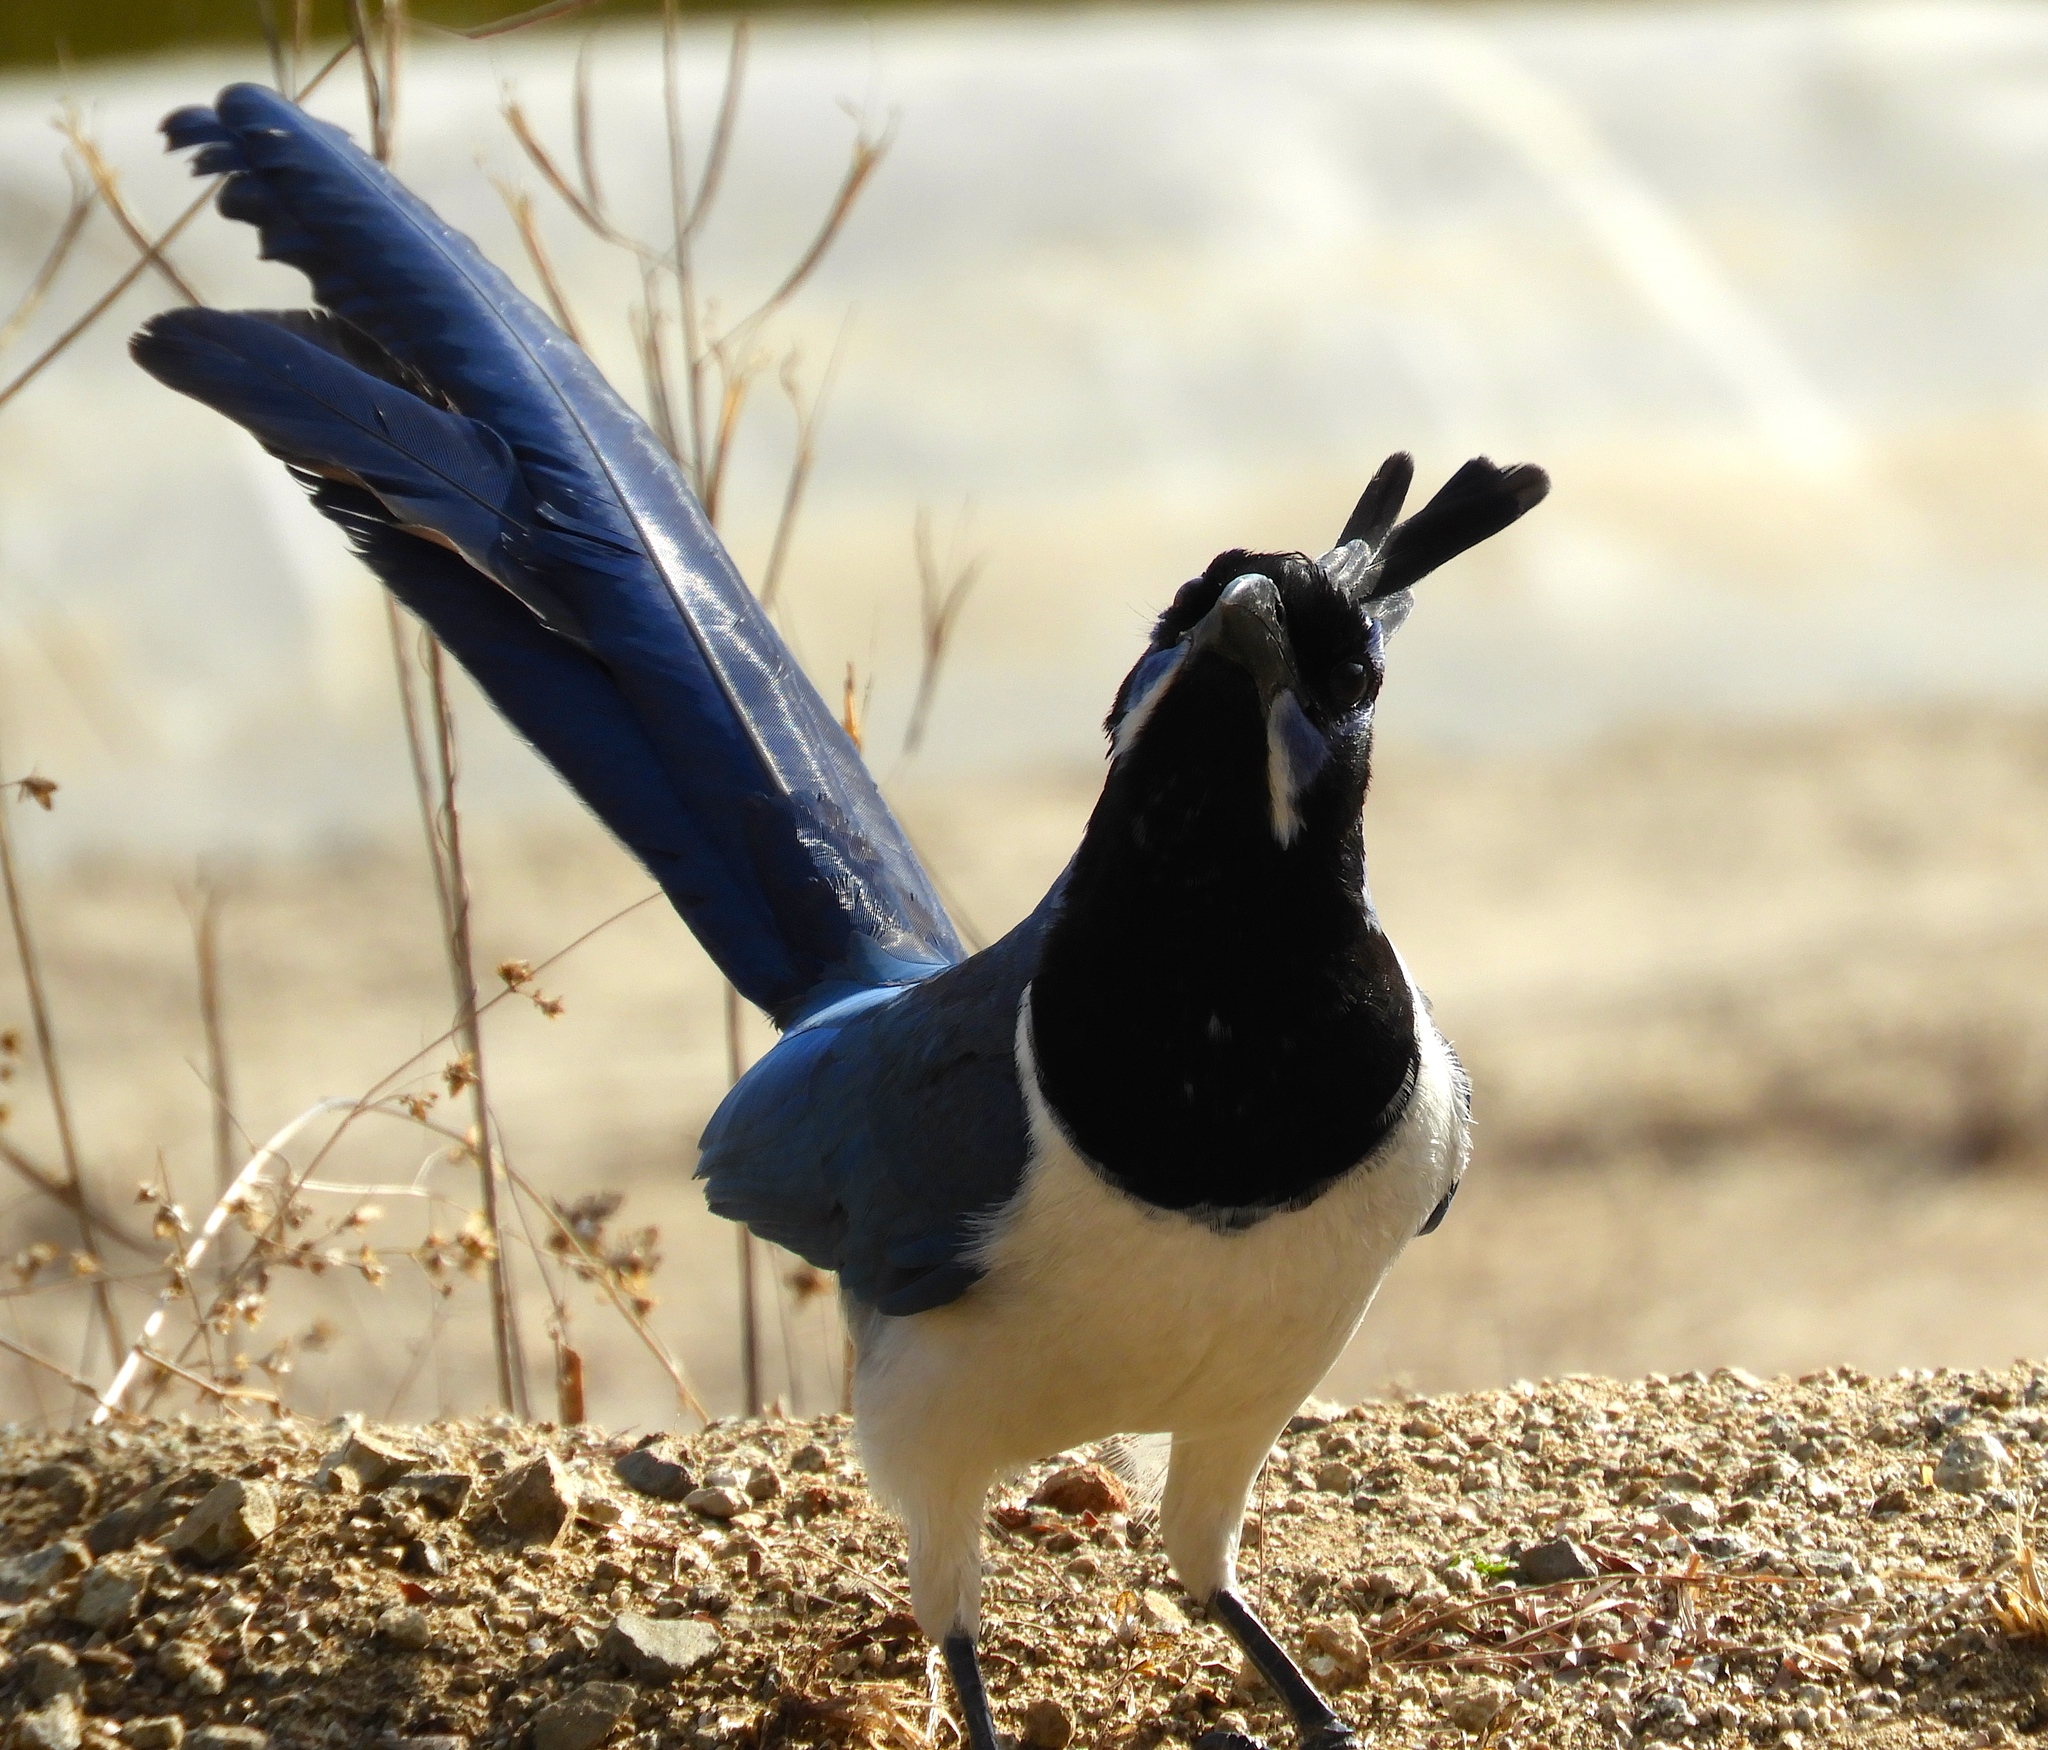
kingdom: Animalia
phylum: Chordata
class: Aves
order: Passeriformes
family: Corvidae
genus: Calocitta
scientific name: Calocitta colliei
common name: Black-throated magpie-jay
